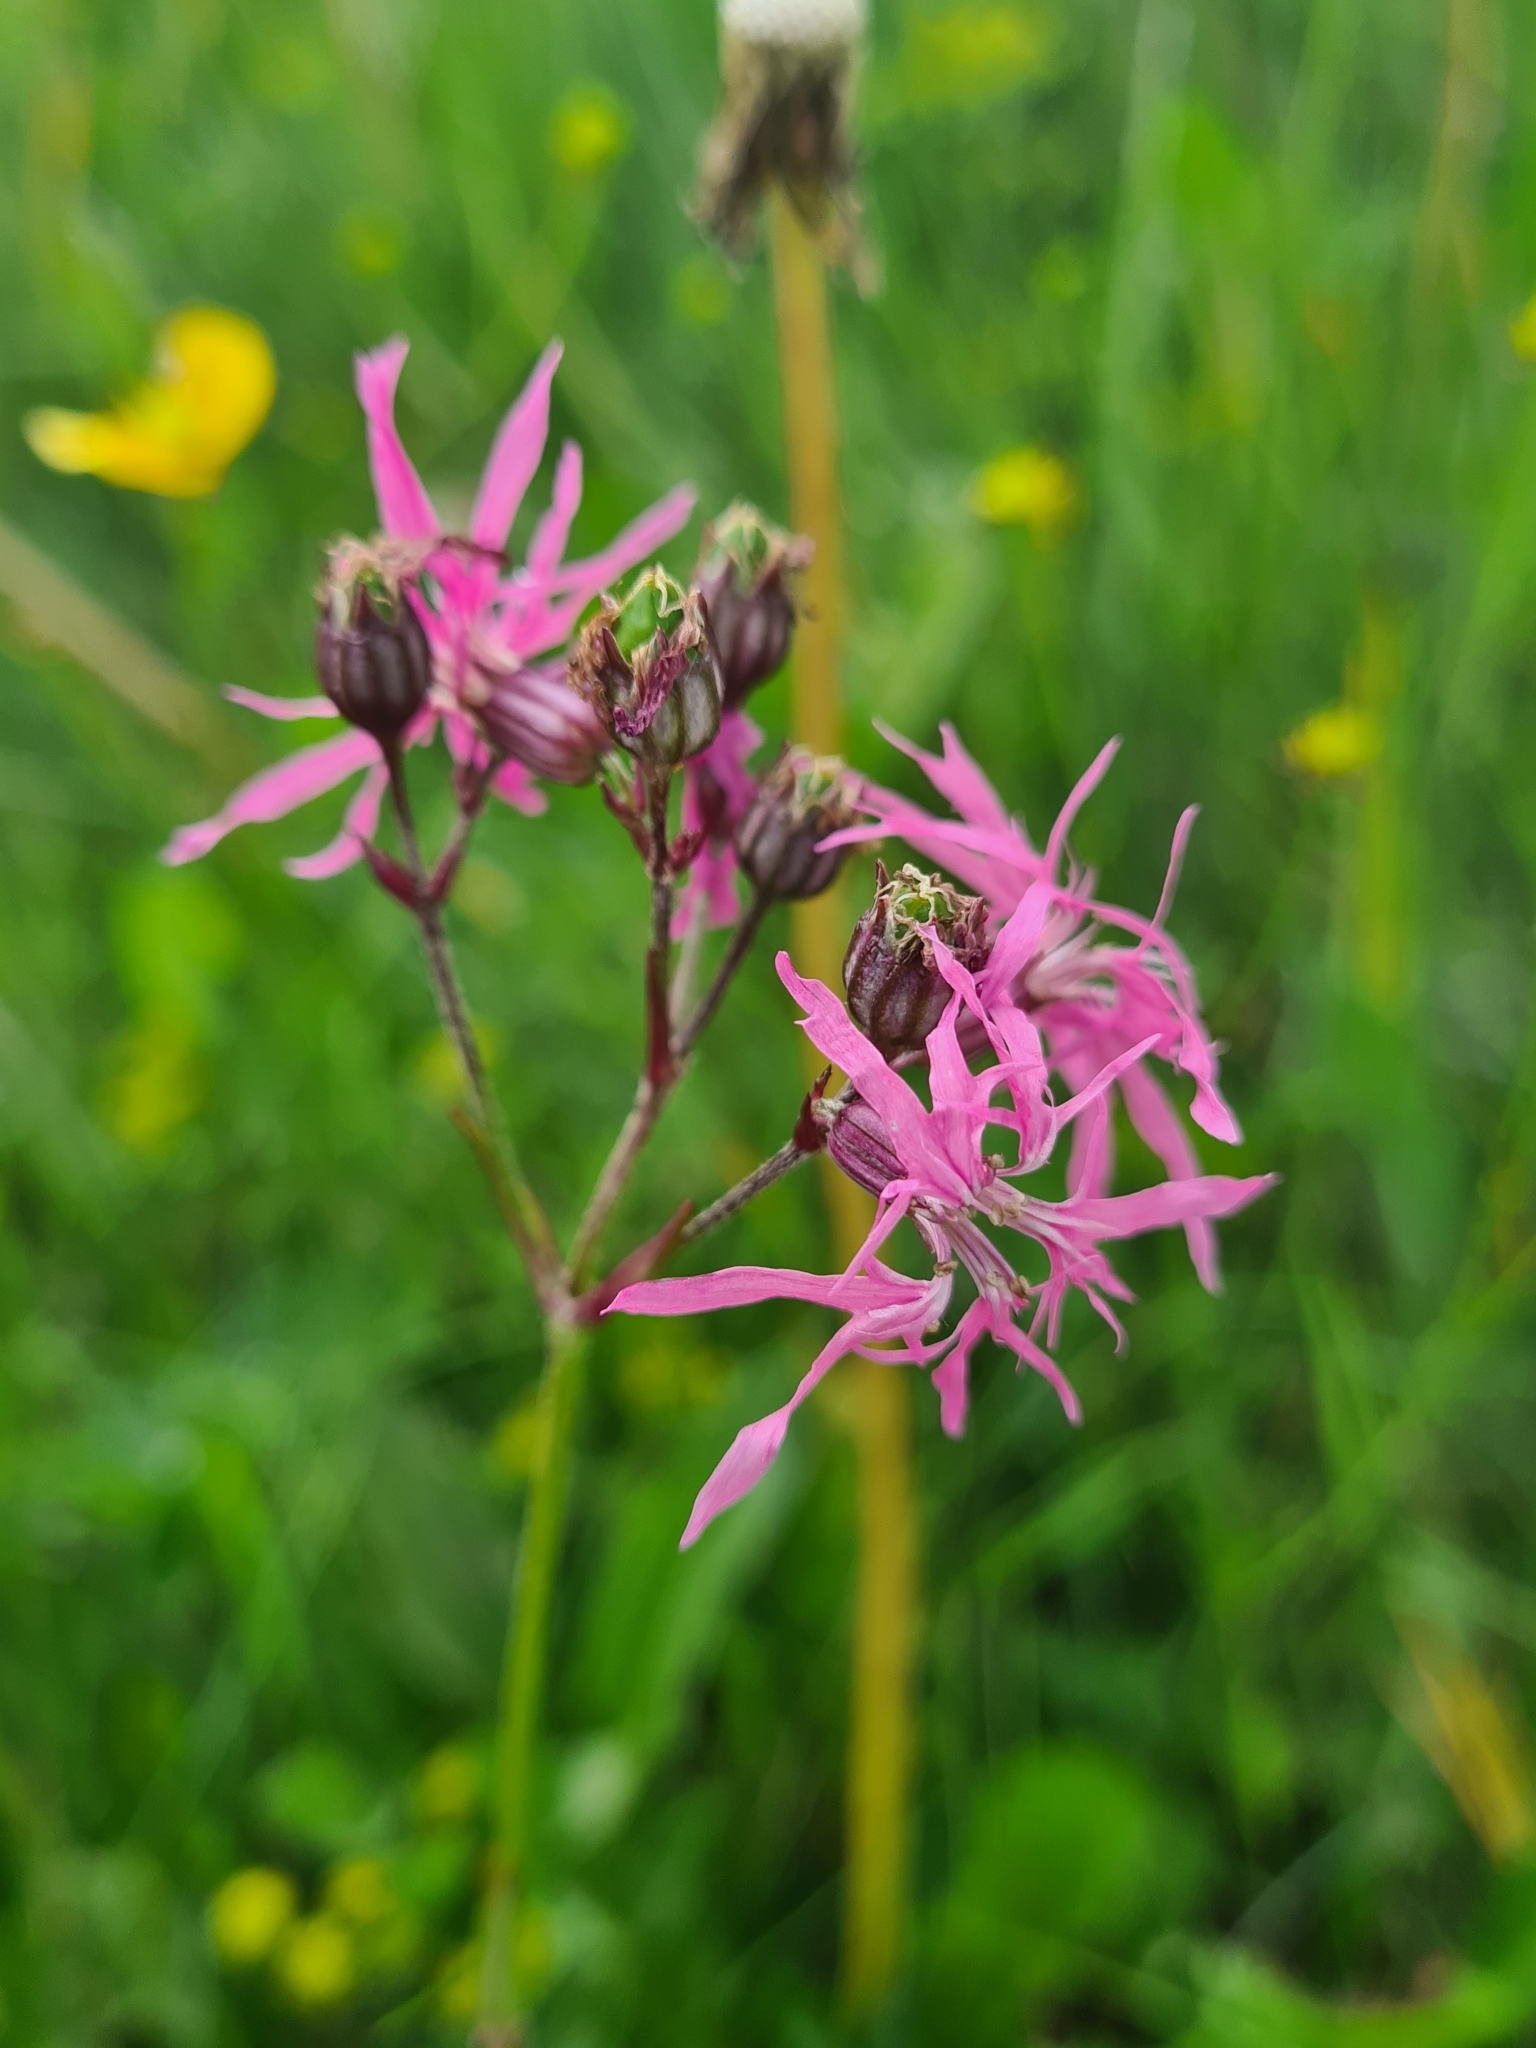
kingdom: Plantae
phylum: Tracheophyta
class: Magnoliopsida
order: Caryophyllales
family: Caryophyllaceae
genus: Silene
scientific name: Silene flos-cuculi
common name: Ragged-robin
